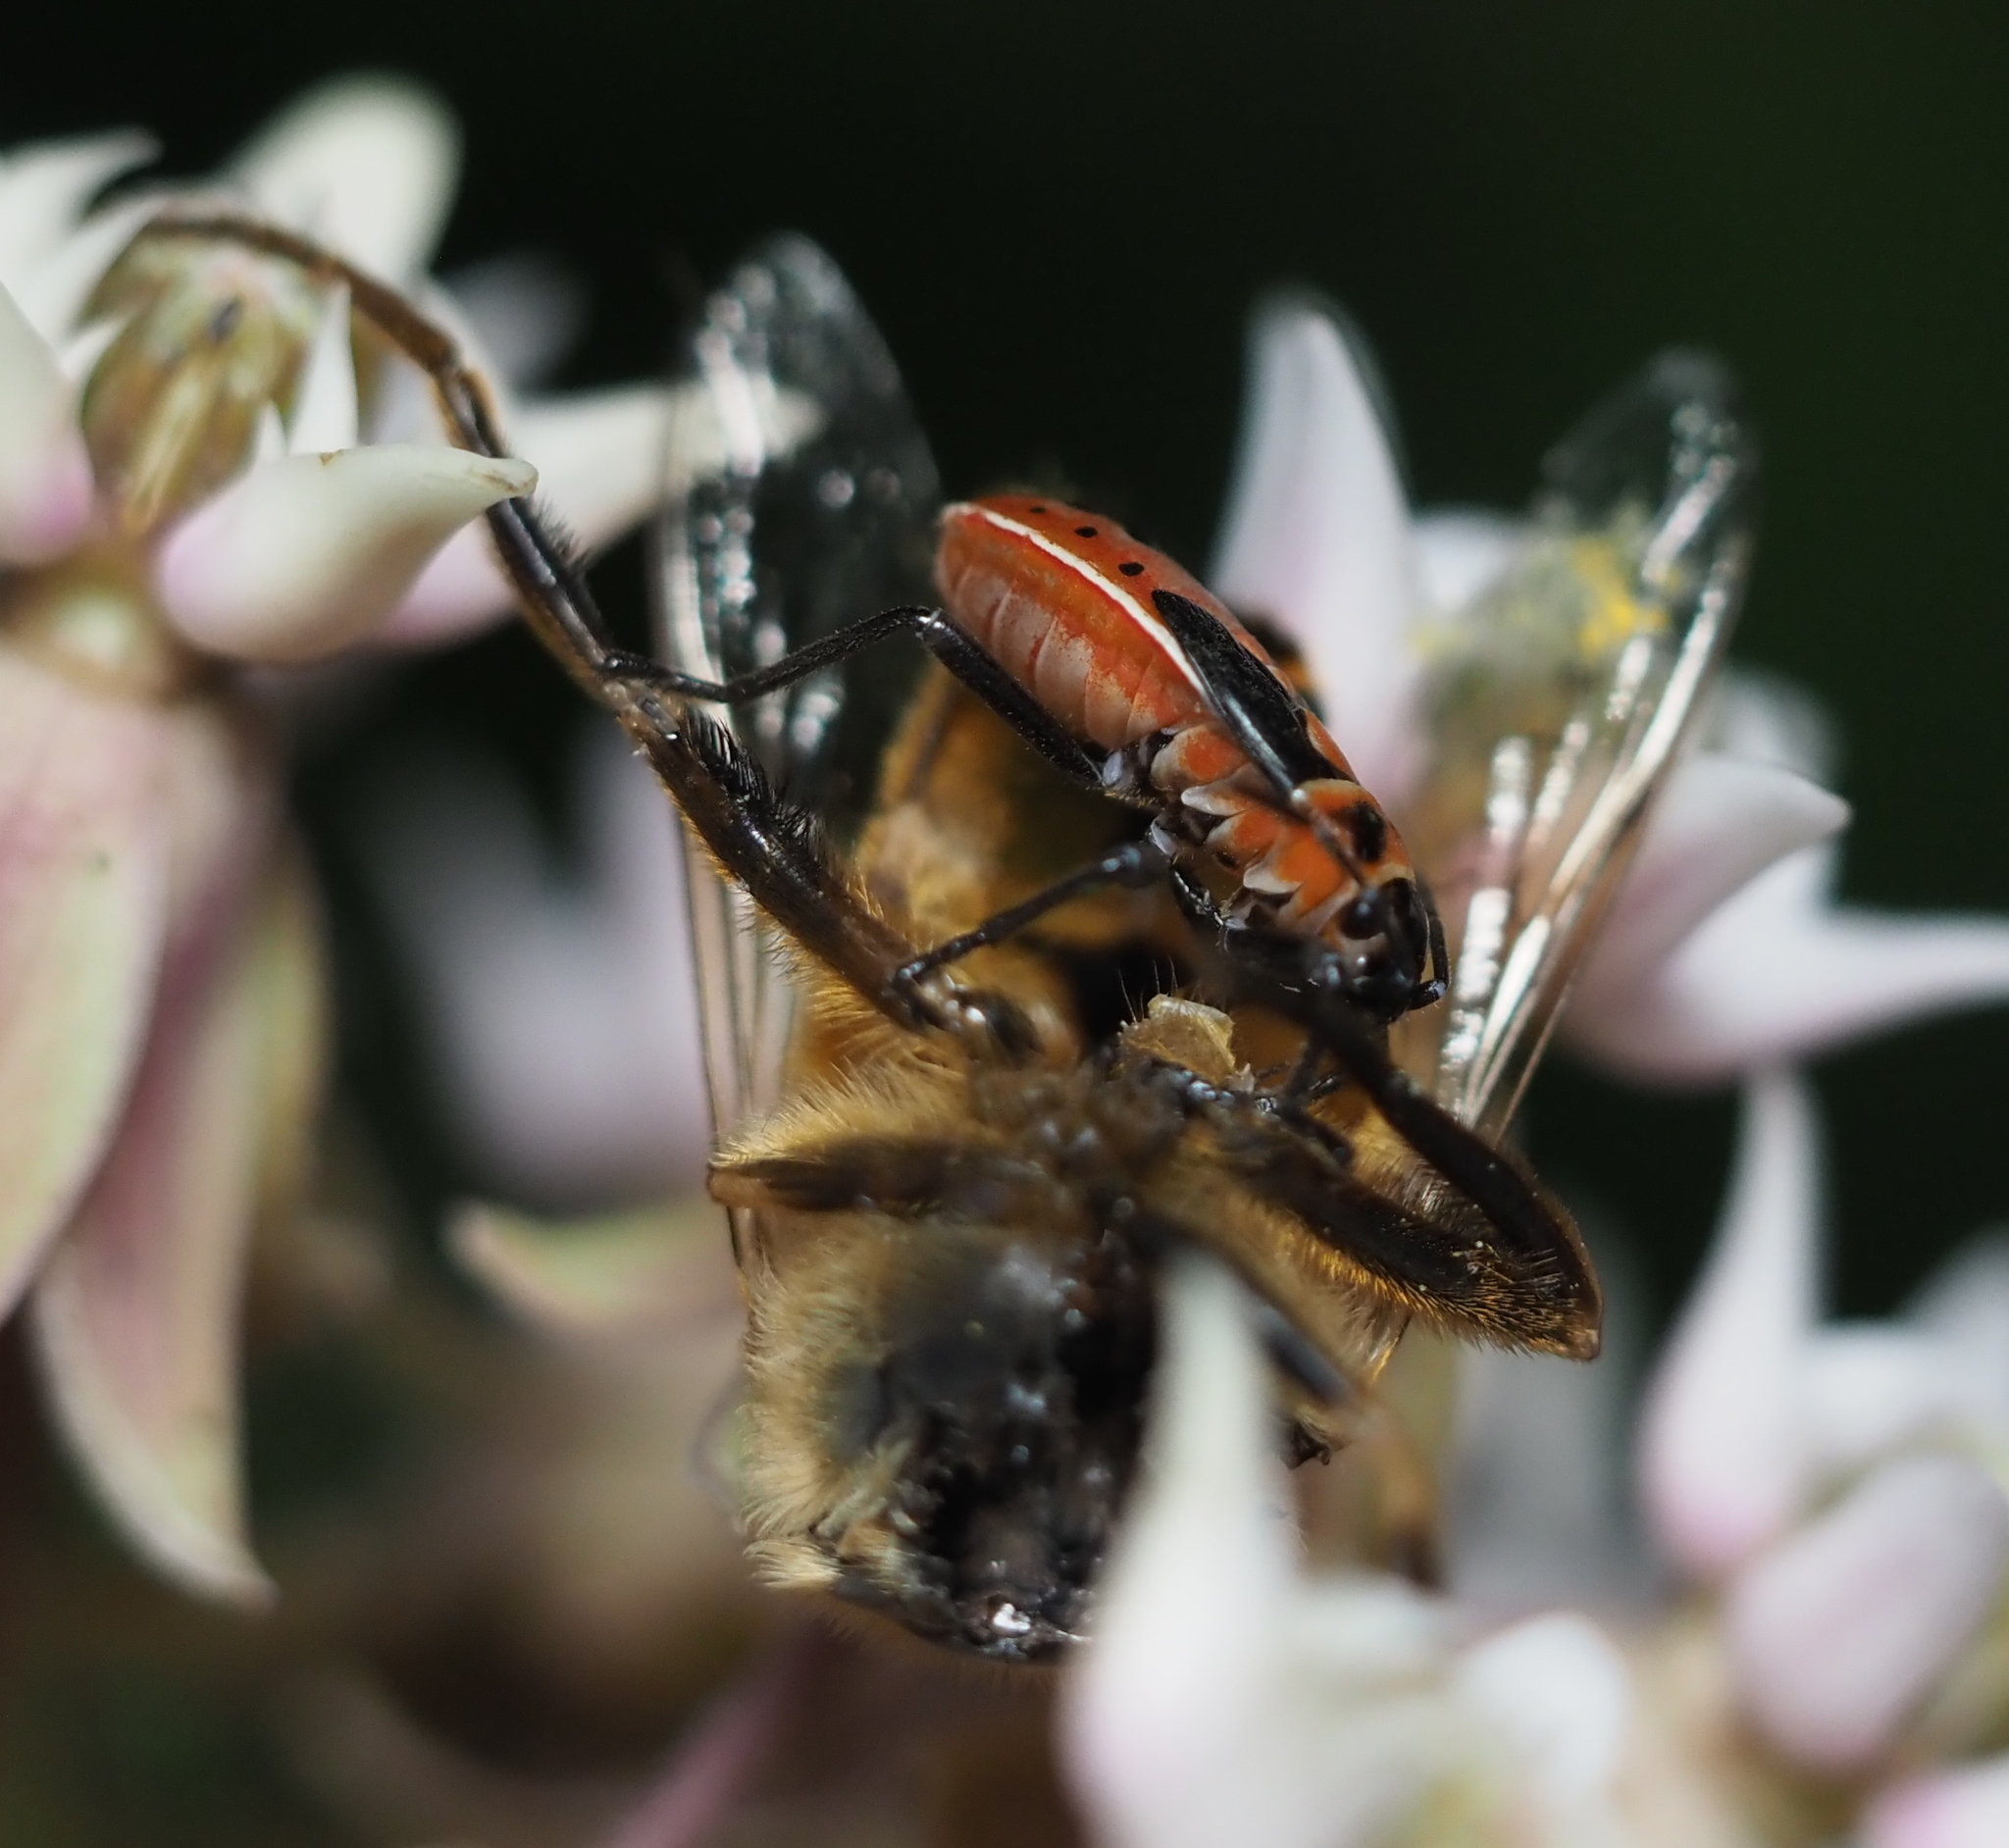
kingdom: Animalia
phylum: Arthropoda
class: Insecta
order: Hemiptera
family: Lygaeidae
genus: Lygaeus
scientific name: Lygaeus kalmii
